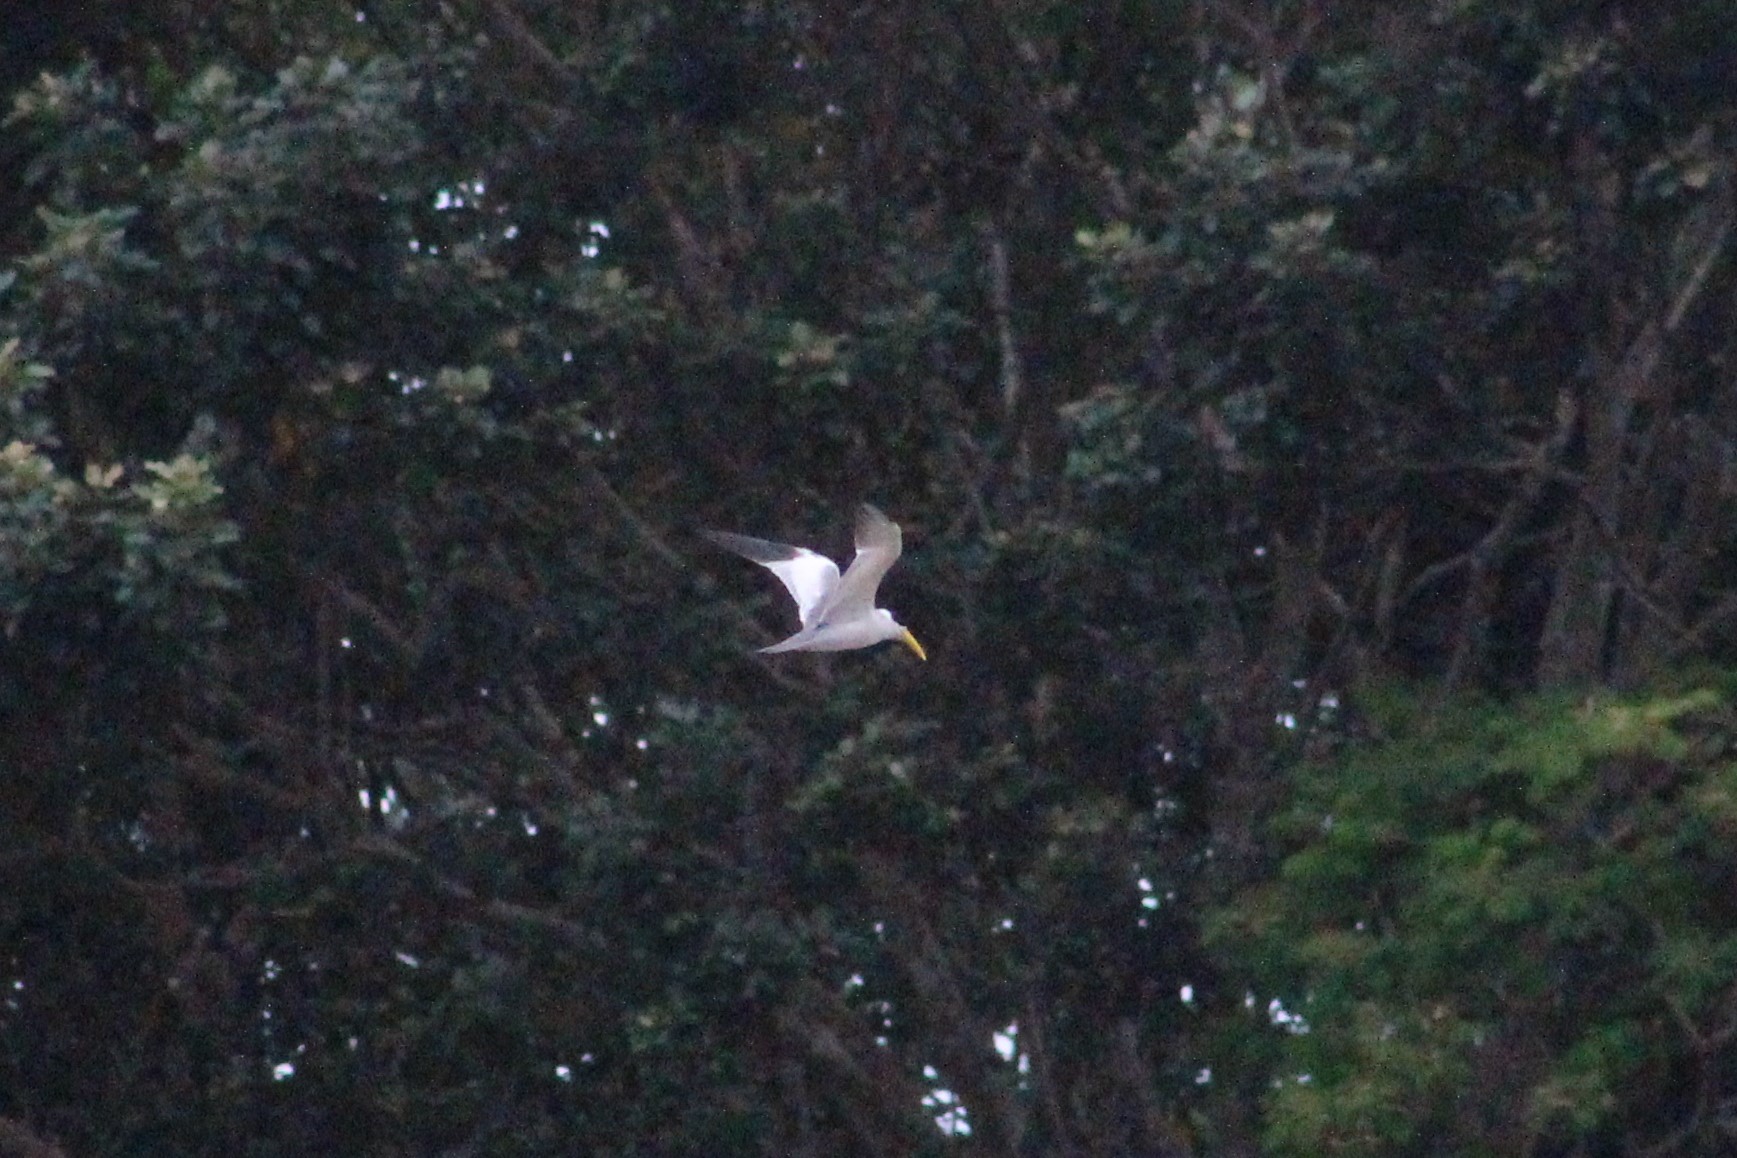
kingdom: Animalia
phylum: Chordata
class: Aves
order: Charadriiformes
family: Laridae
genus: Phaetusa
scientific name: Phaetusa simplex
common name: Large-billed tern
